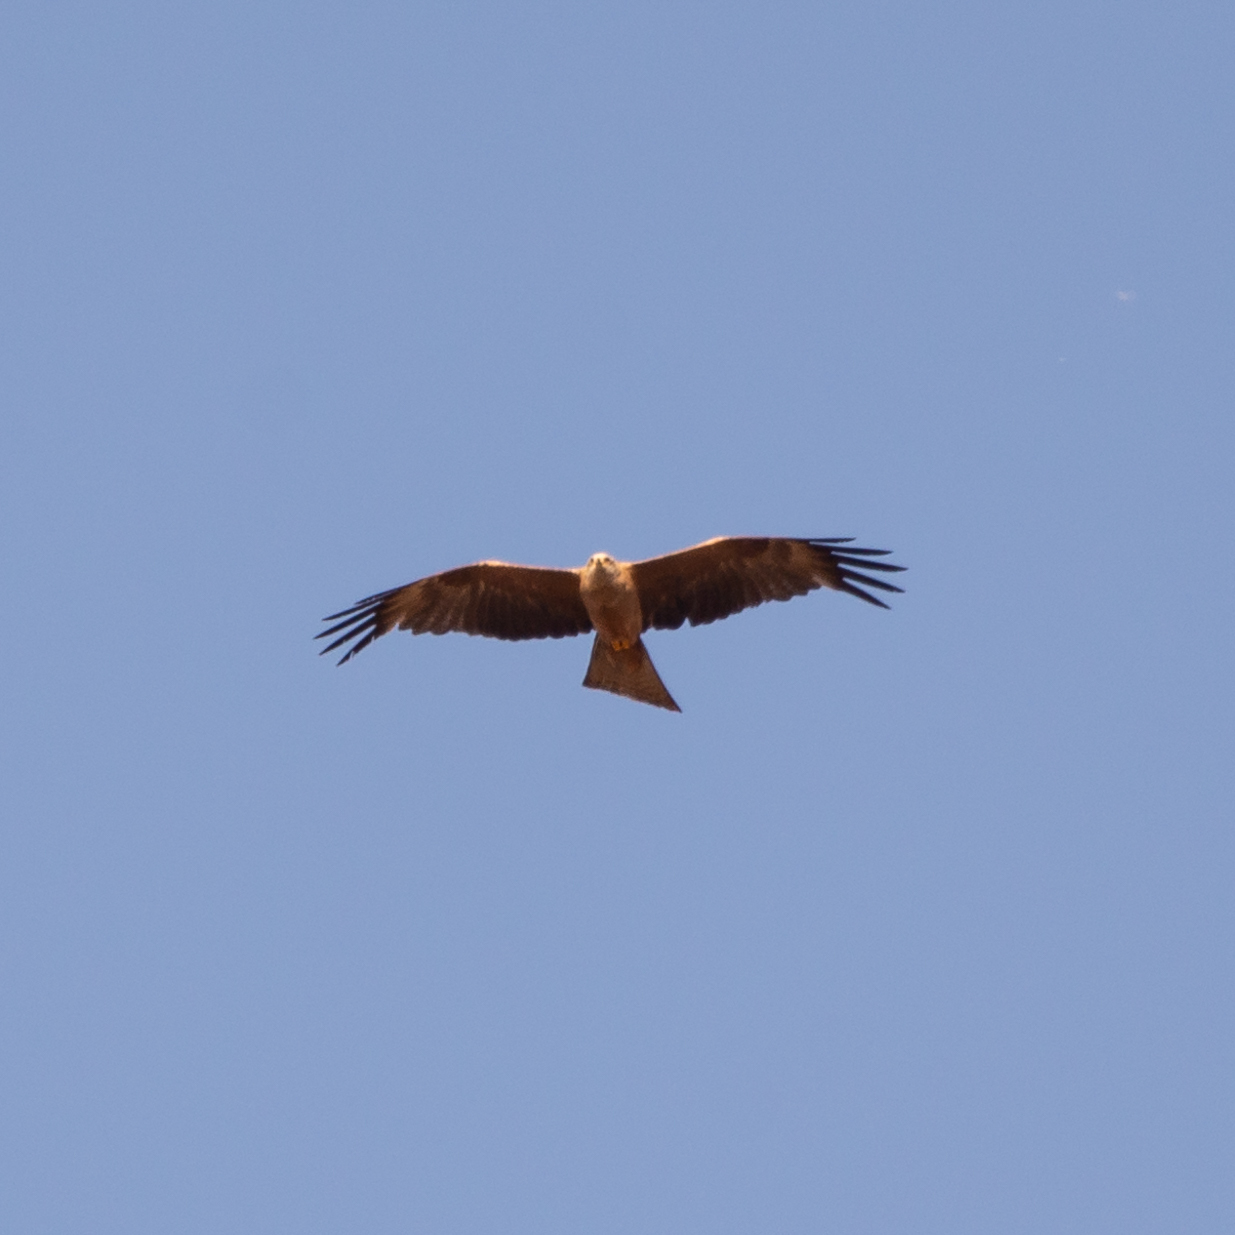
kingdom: Animalia
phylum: Chordata
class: Aves
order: Accipitriformes
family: Accipitridae
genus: Milvus
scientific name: Milvus migrans
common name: Black kite
